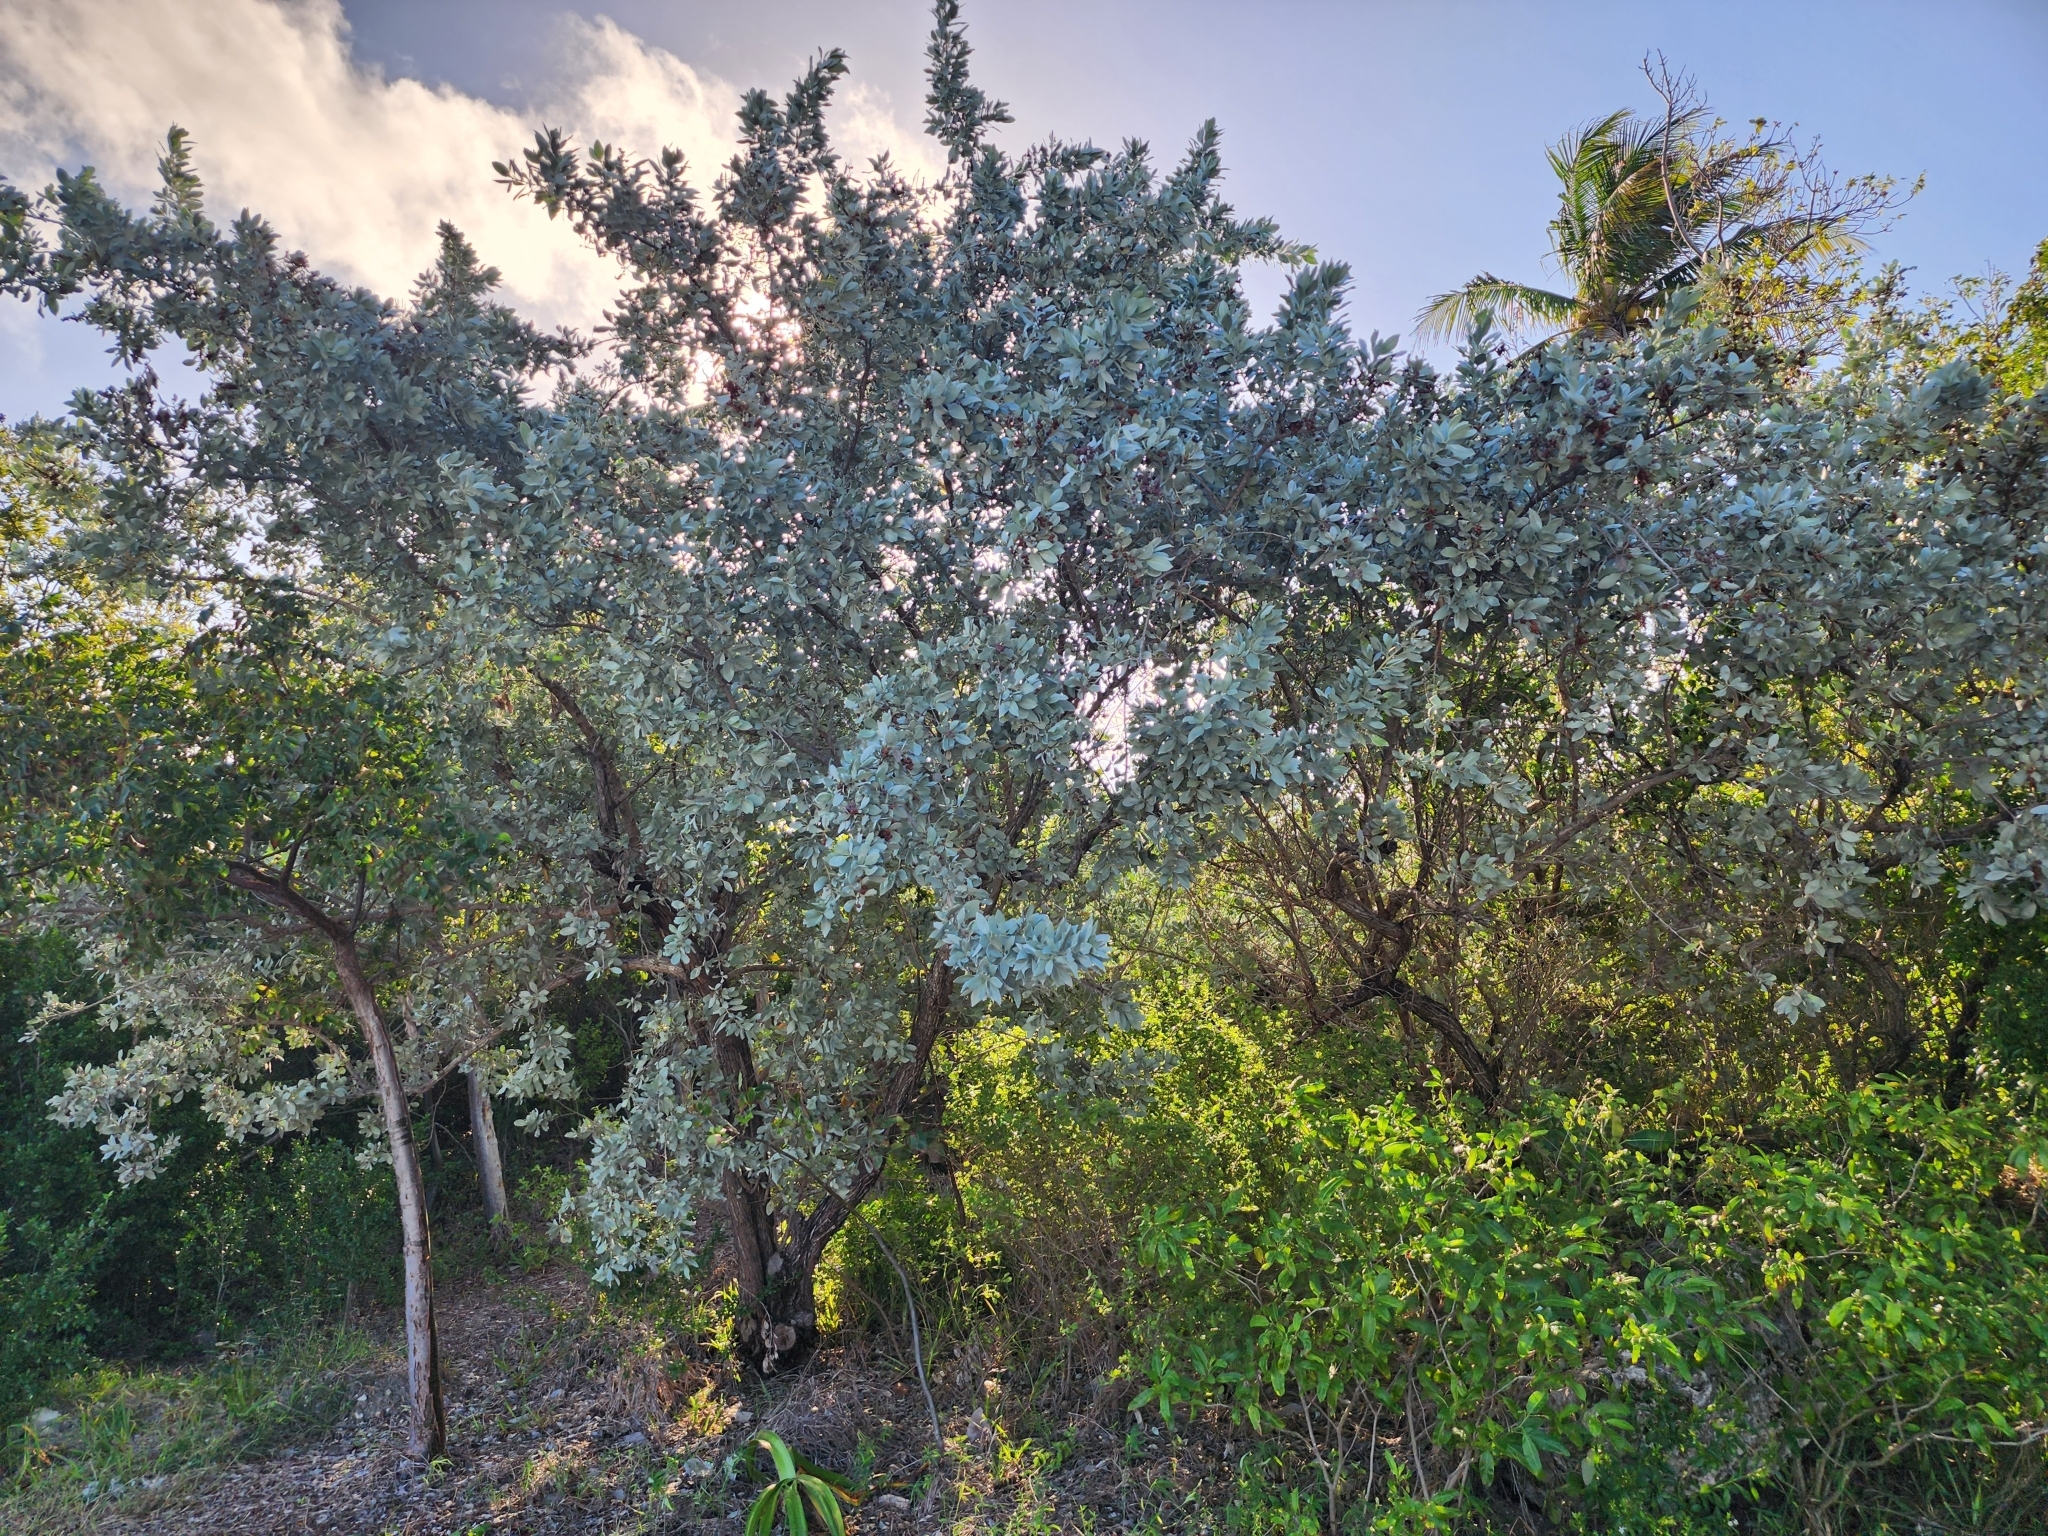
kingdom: Plantae
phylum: Tracheophyta
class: Magnoliopsida
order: Myrtales
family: Combretaceae
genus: Conocarpus
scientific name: Conocarpus erectus
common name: Button mangrove
